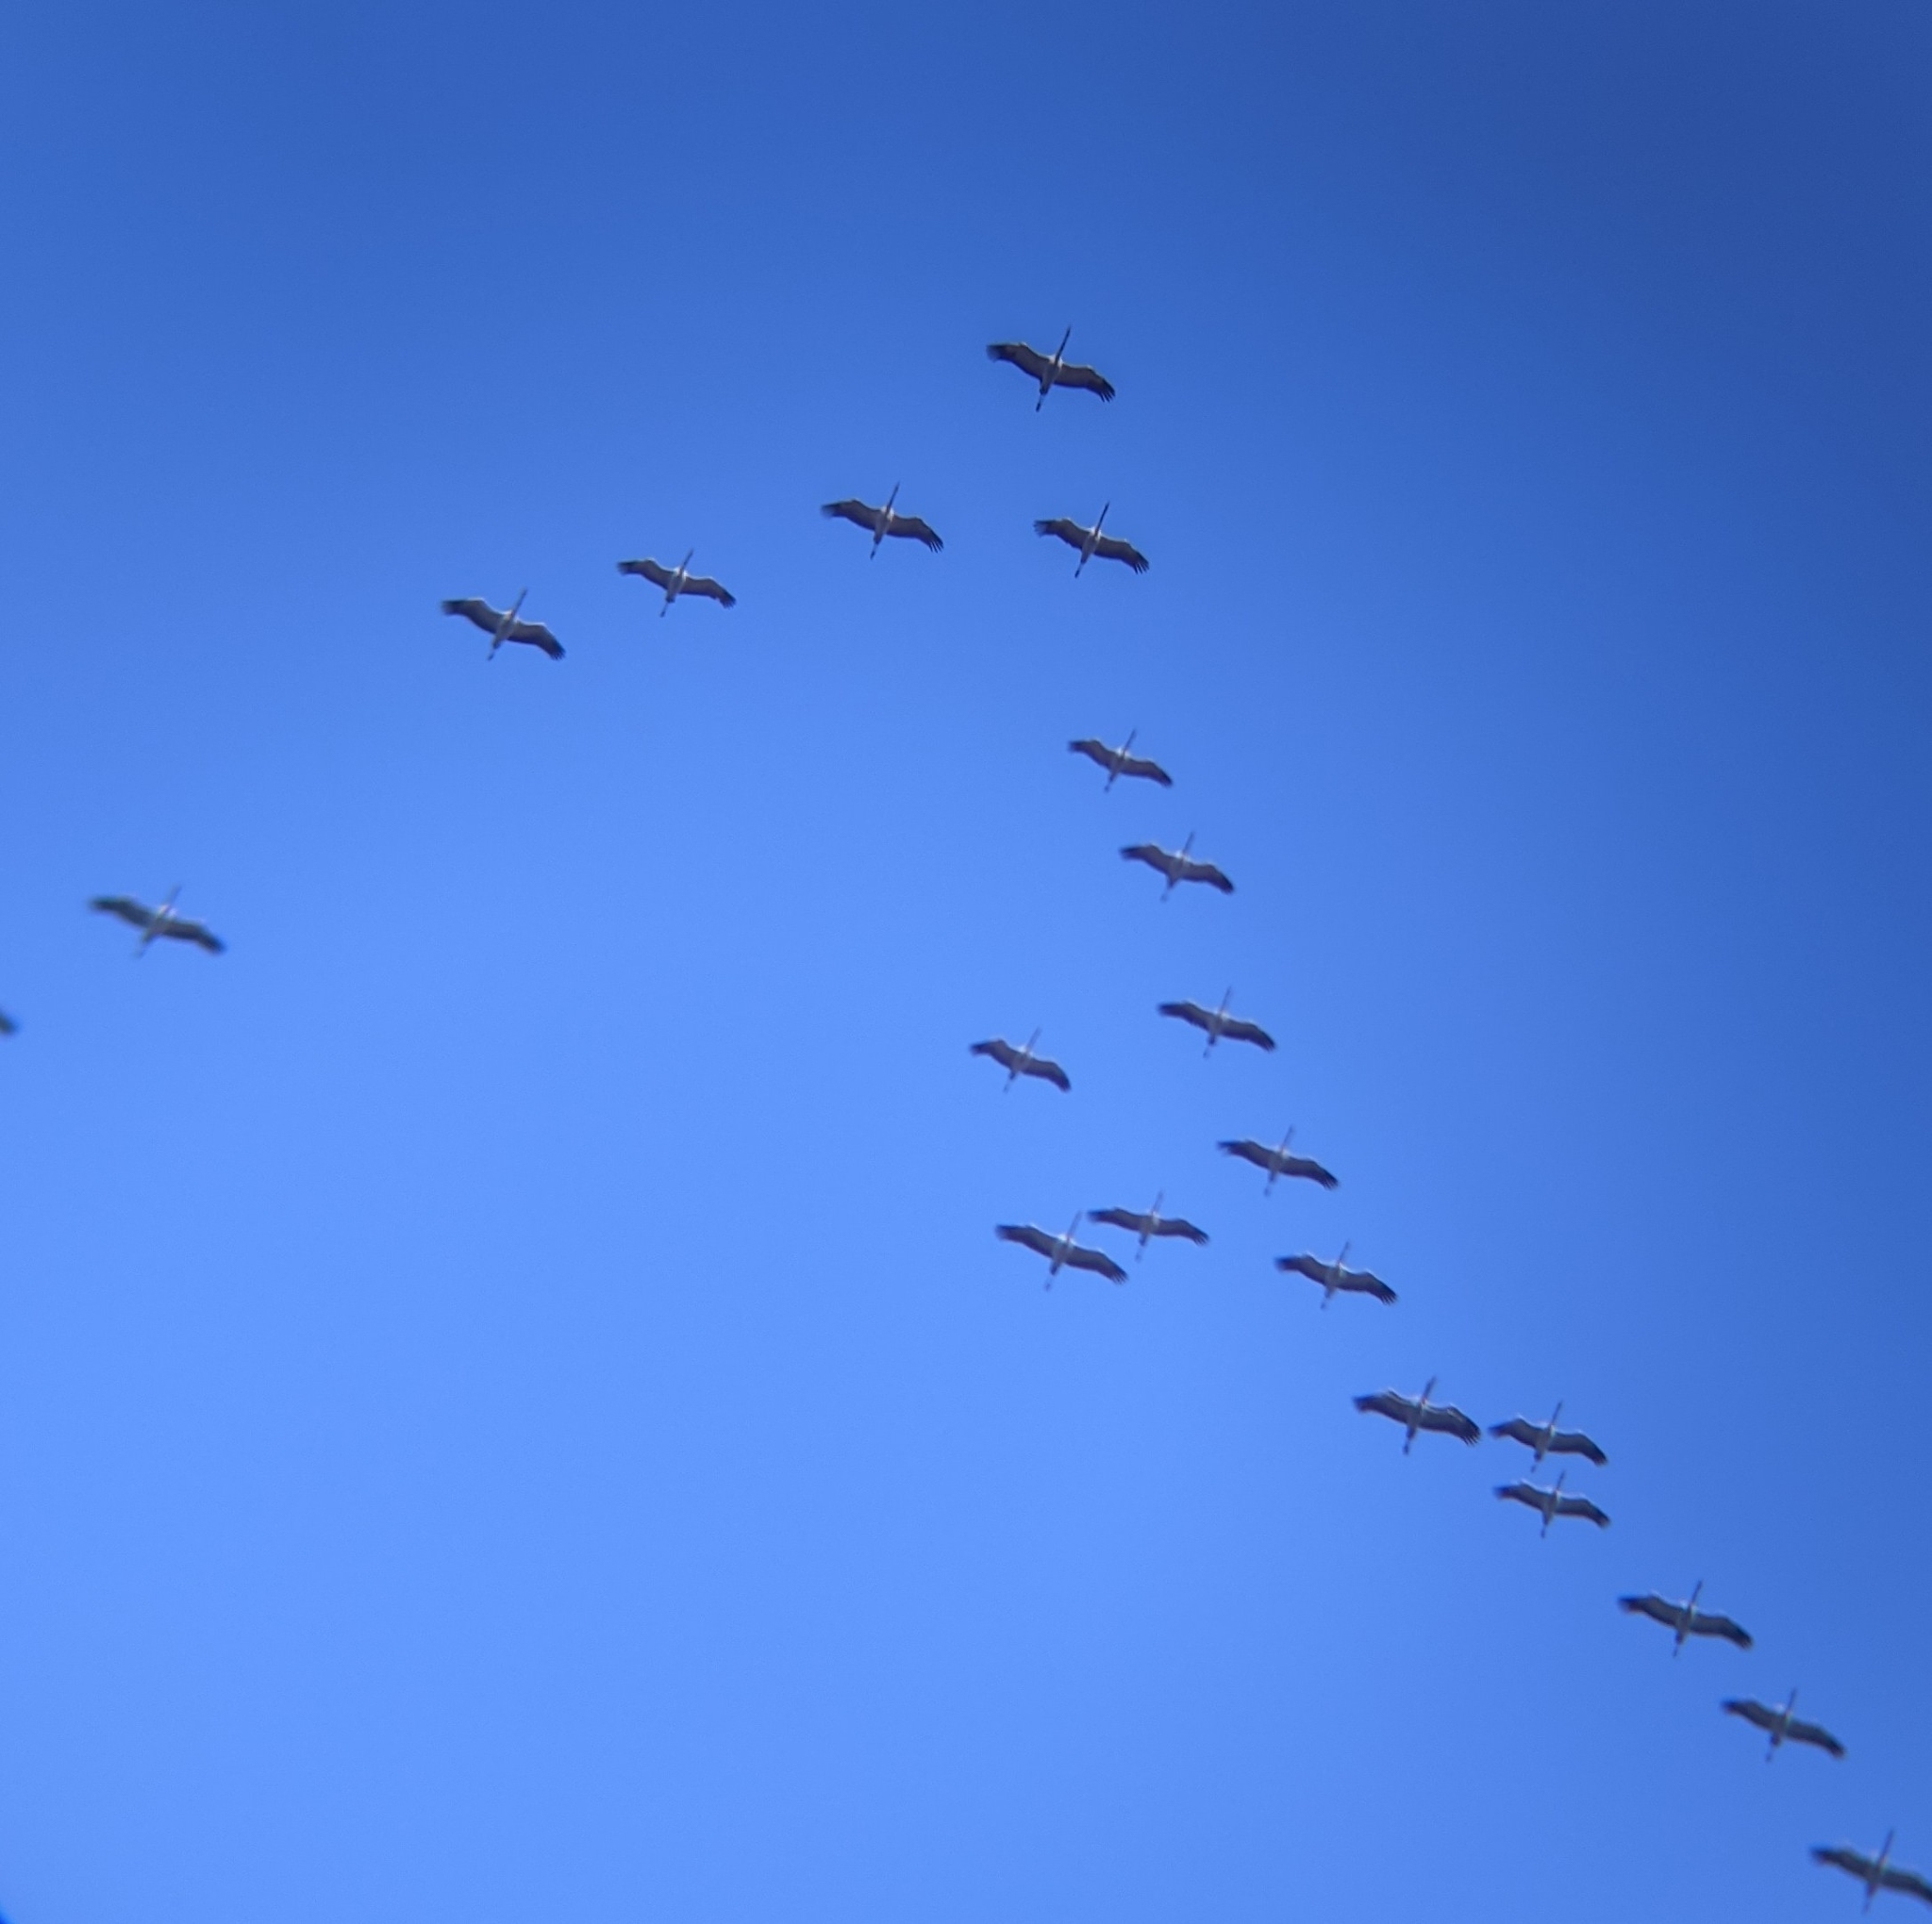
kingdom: Animalia
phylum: Chordata
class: Aves
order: Gruiformes
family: Gruidae
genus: Grus
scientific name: Grus grus
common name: Common crane
